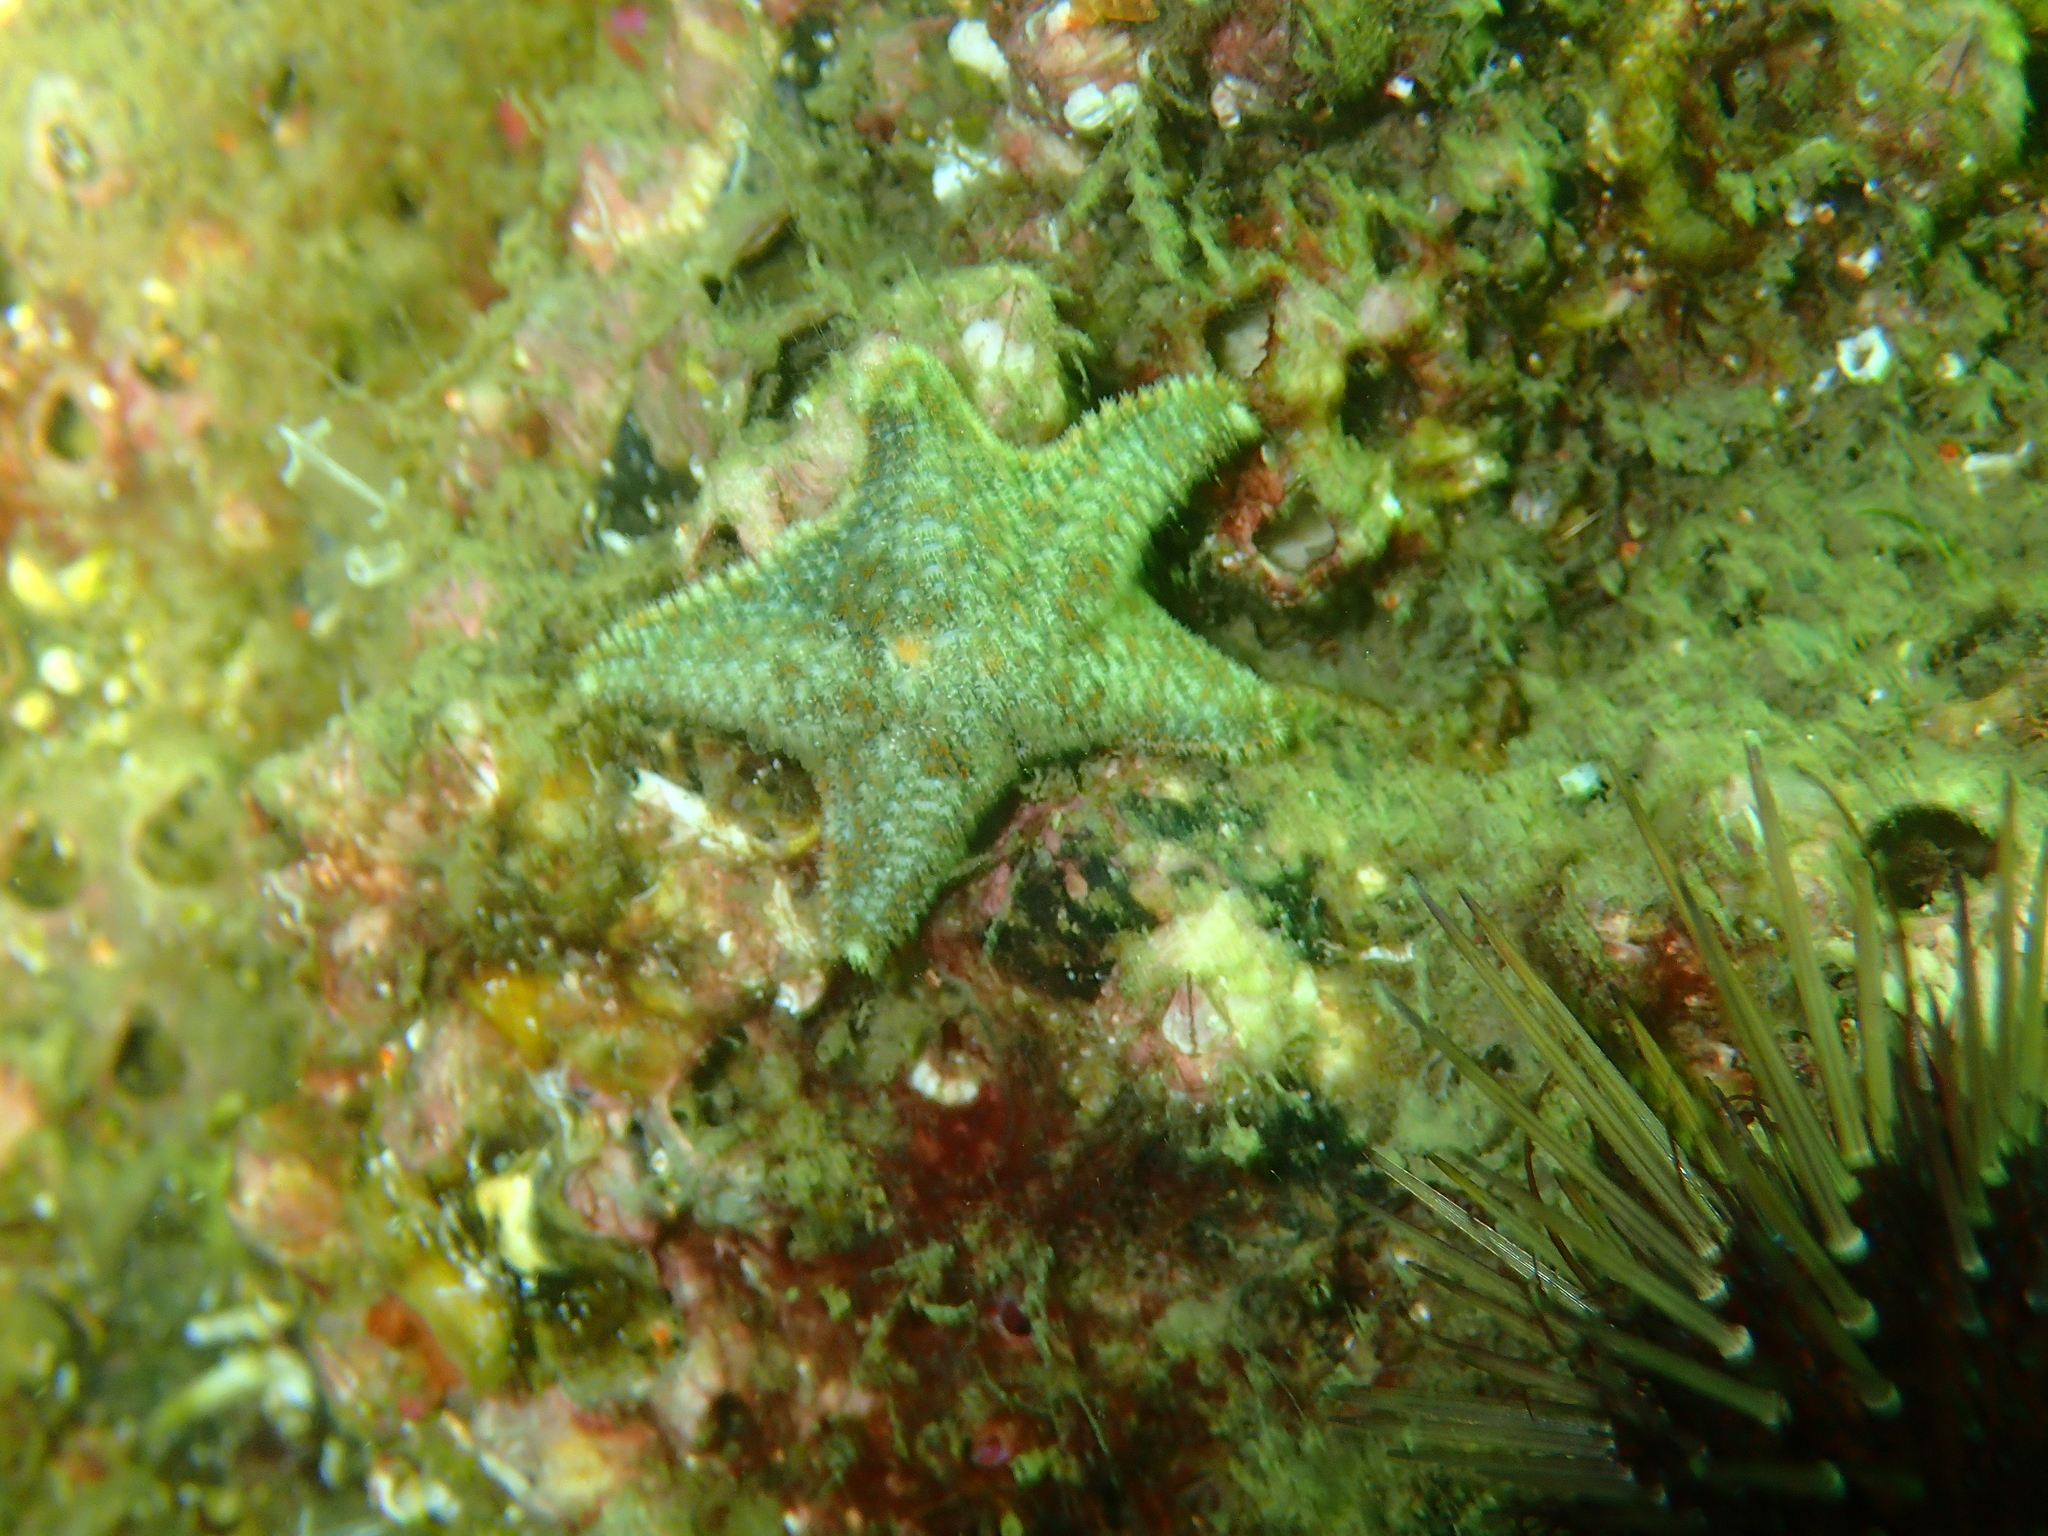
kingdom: Animalia
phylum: Echinodermata
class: Asteroidea
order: Valvatida
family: Asterinidae
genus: Asterina
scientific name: Asterina gibbosa
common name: Cushion star
